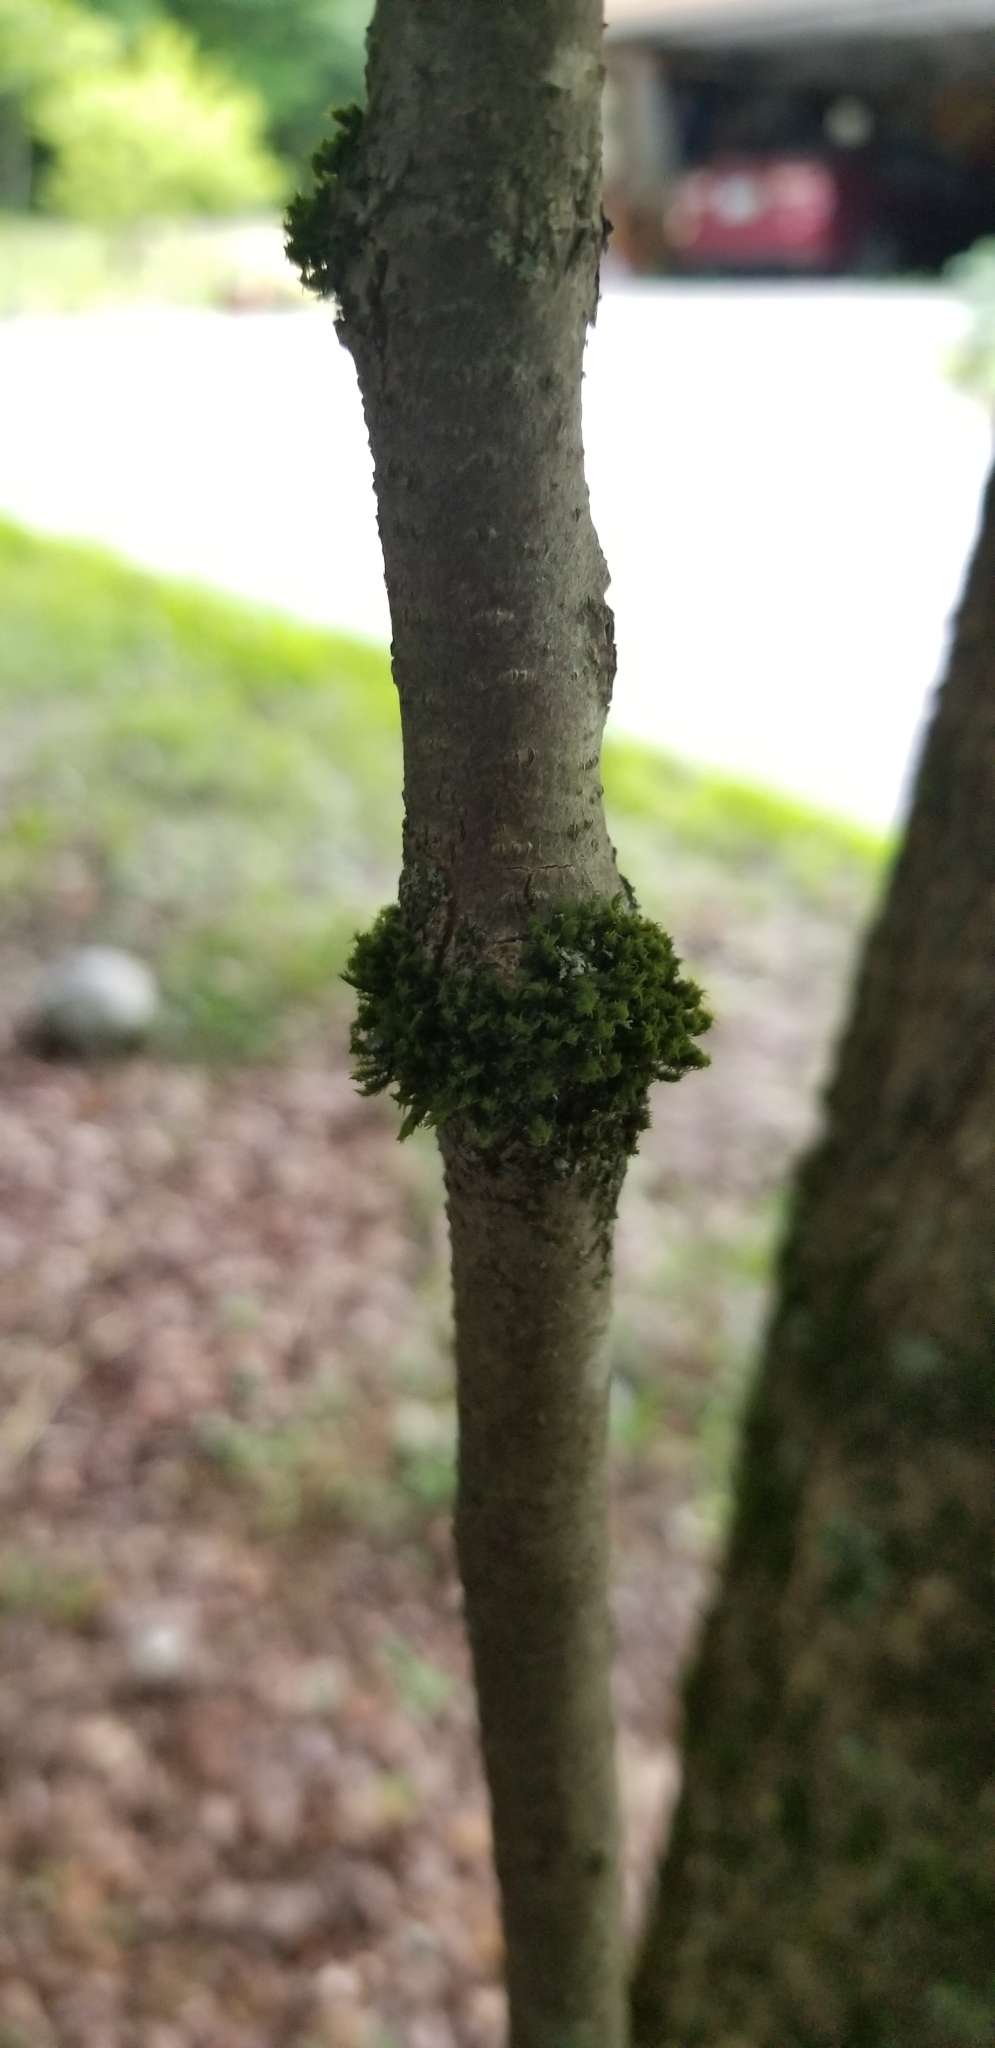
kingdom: Plantae
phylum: Bryophyta
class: Bryopsida
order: Orthotrichales
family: Orthotrichaceae
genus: Ulota
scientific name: Ulota crispa
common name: Crisped pincushion moss
